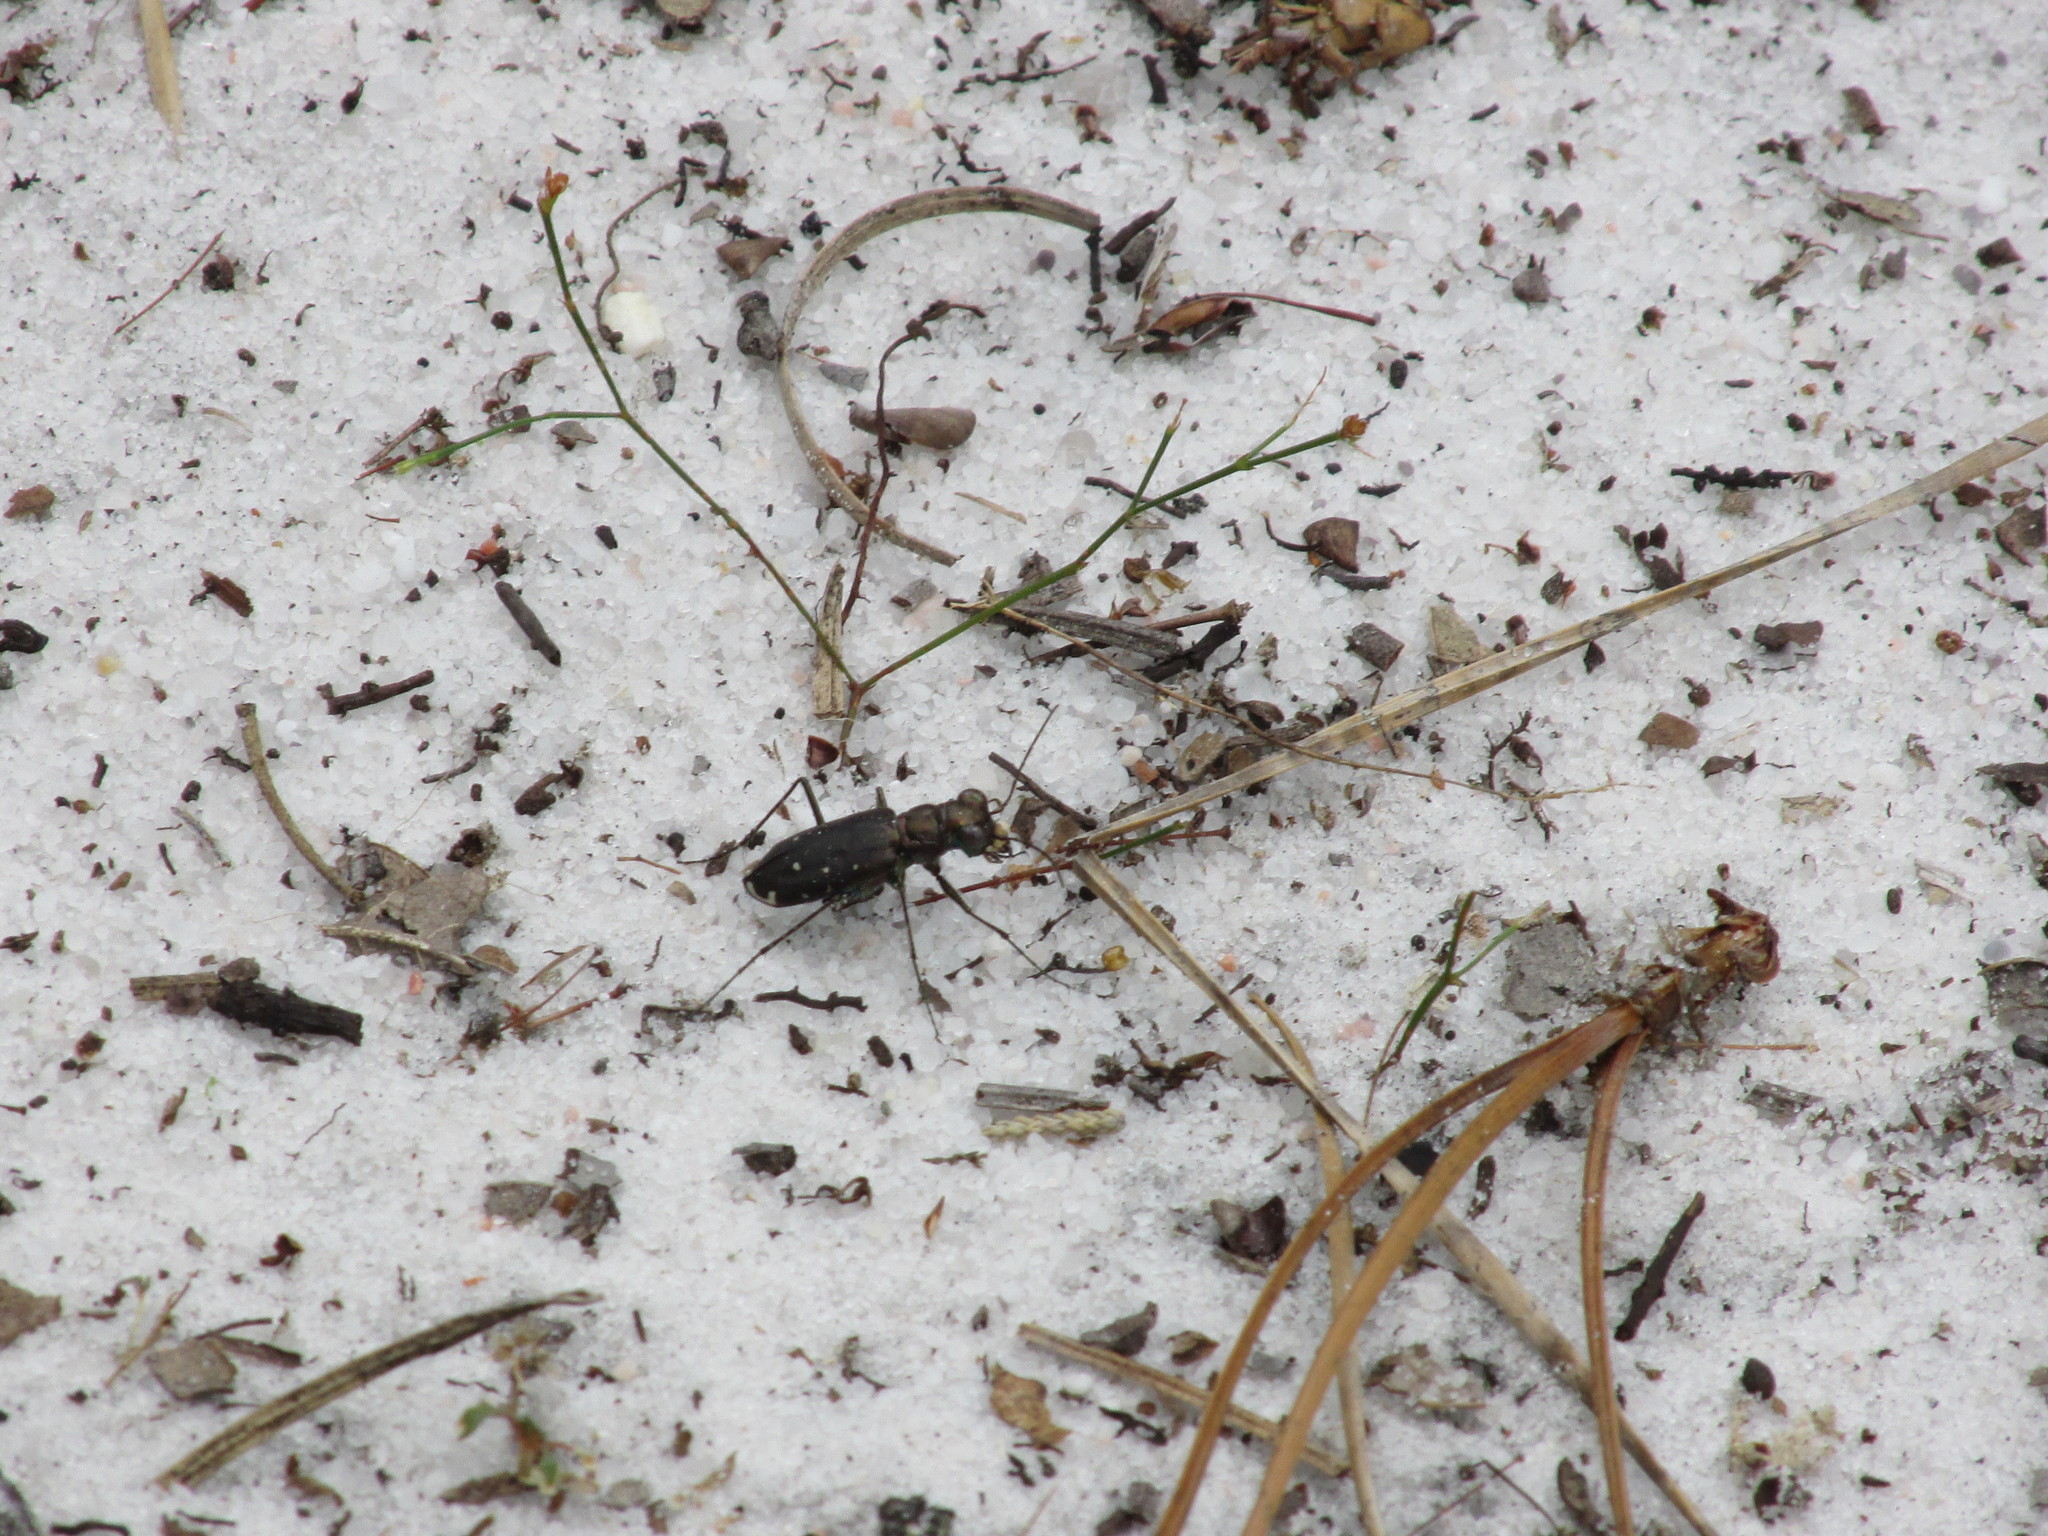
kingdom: Animalia
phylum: Arthropoda
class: Insecta
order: Coleoptera
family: Carabidae
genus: Cicindela
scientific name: Cicindela punctulata
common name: Punctured tiger beetle
